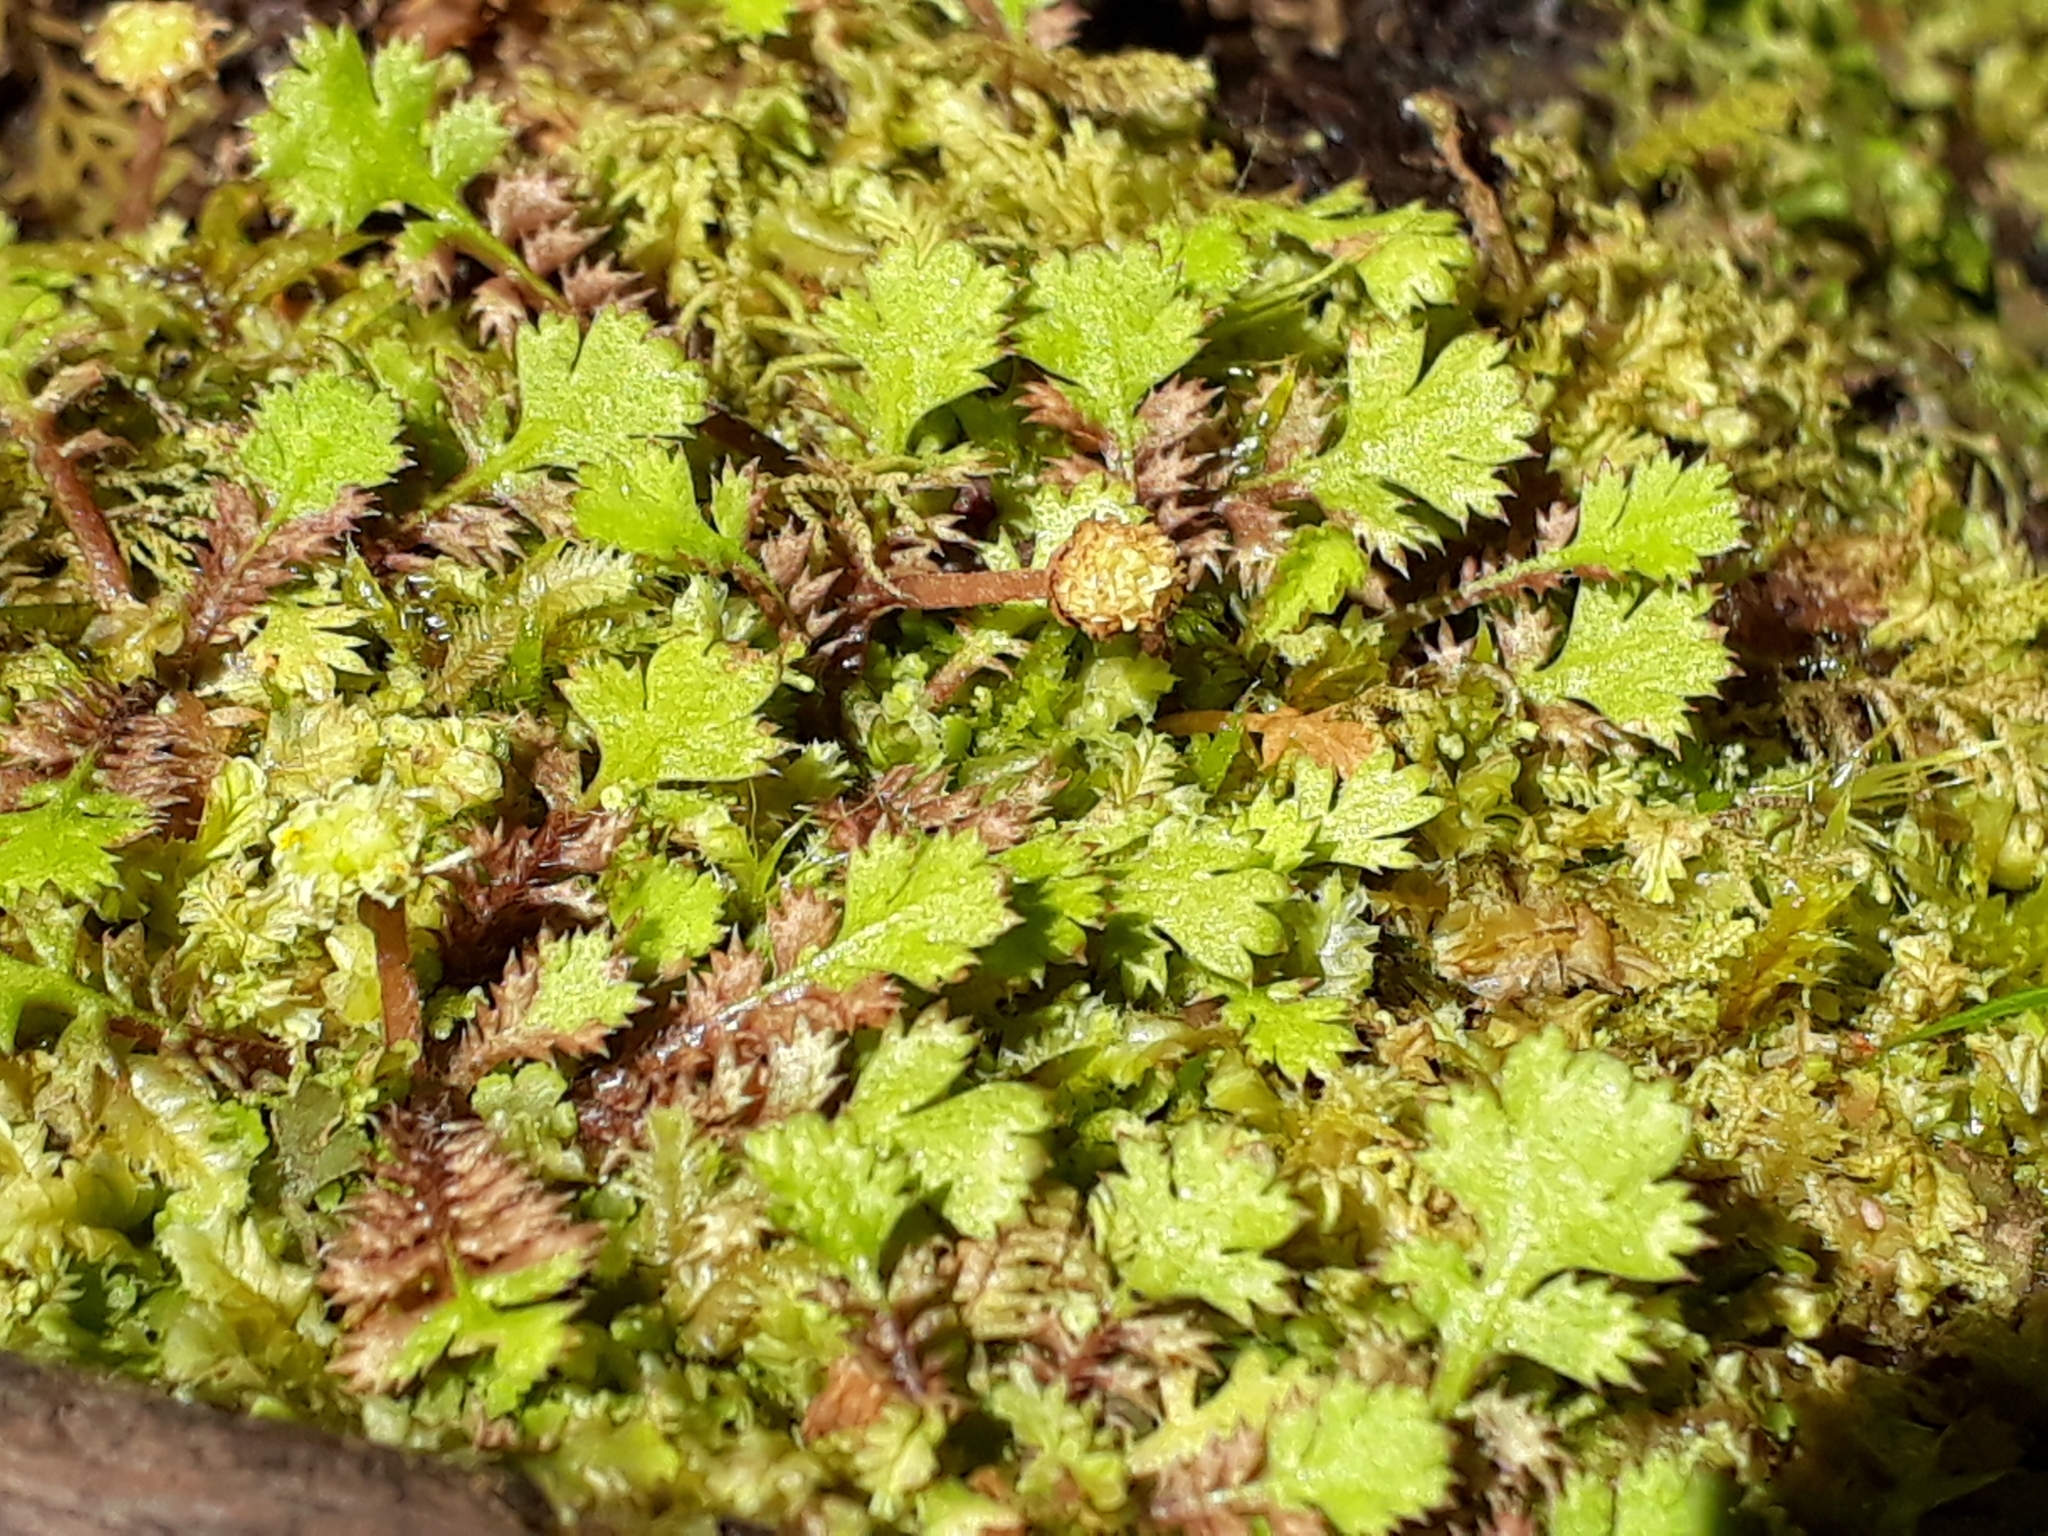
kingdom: Plantae
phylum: Tracheophyta
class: Magnoliopsida
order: Asterales
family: Asteraceae
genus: Leptinella
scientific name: Leptinella squalida
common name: New zealand brass-buttons
